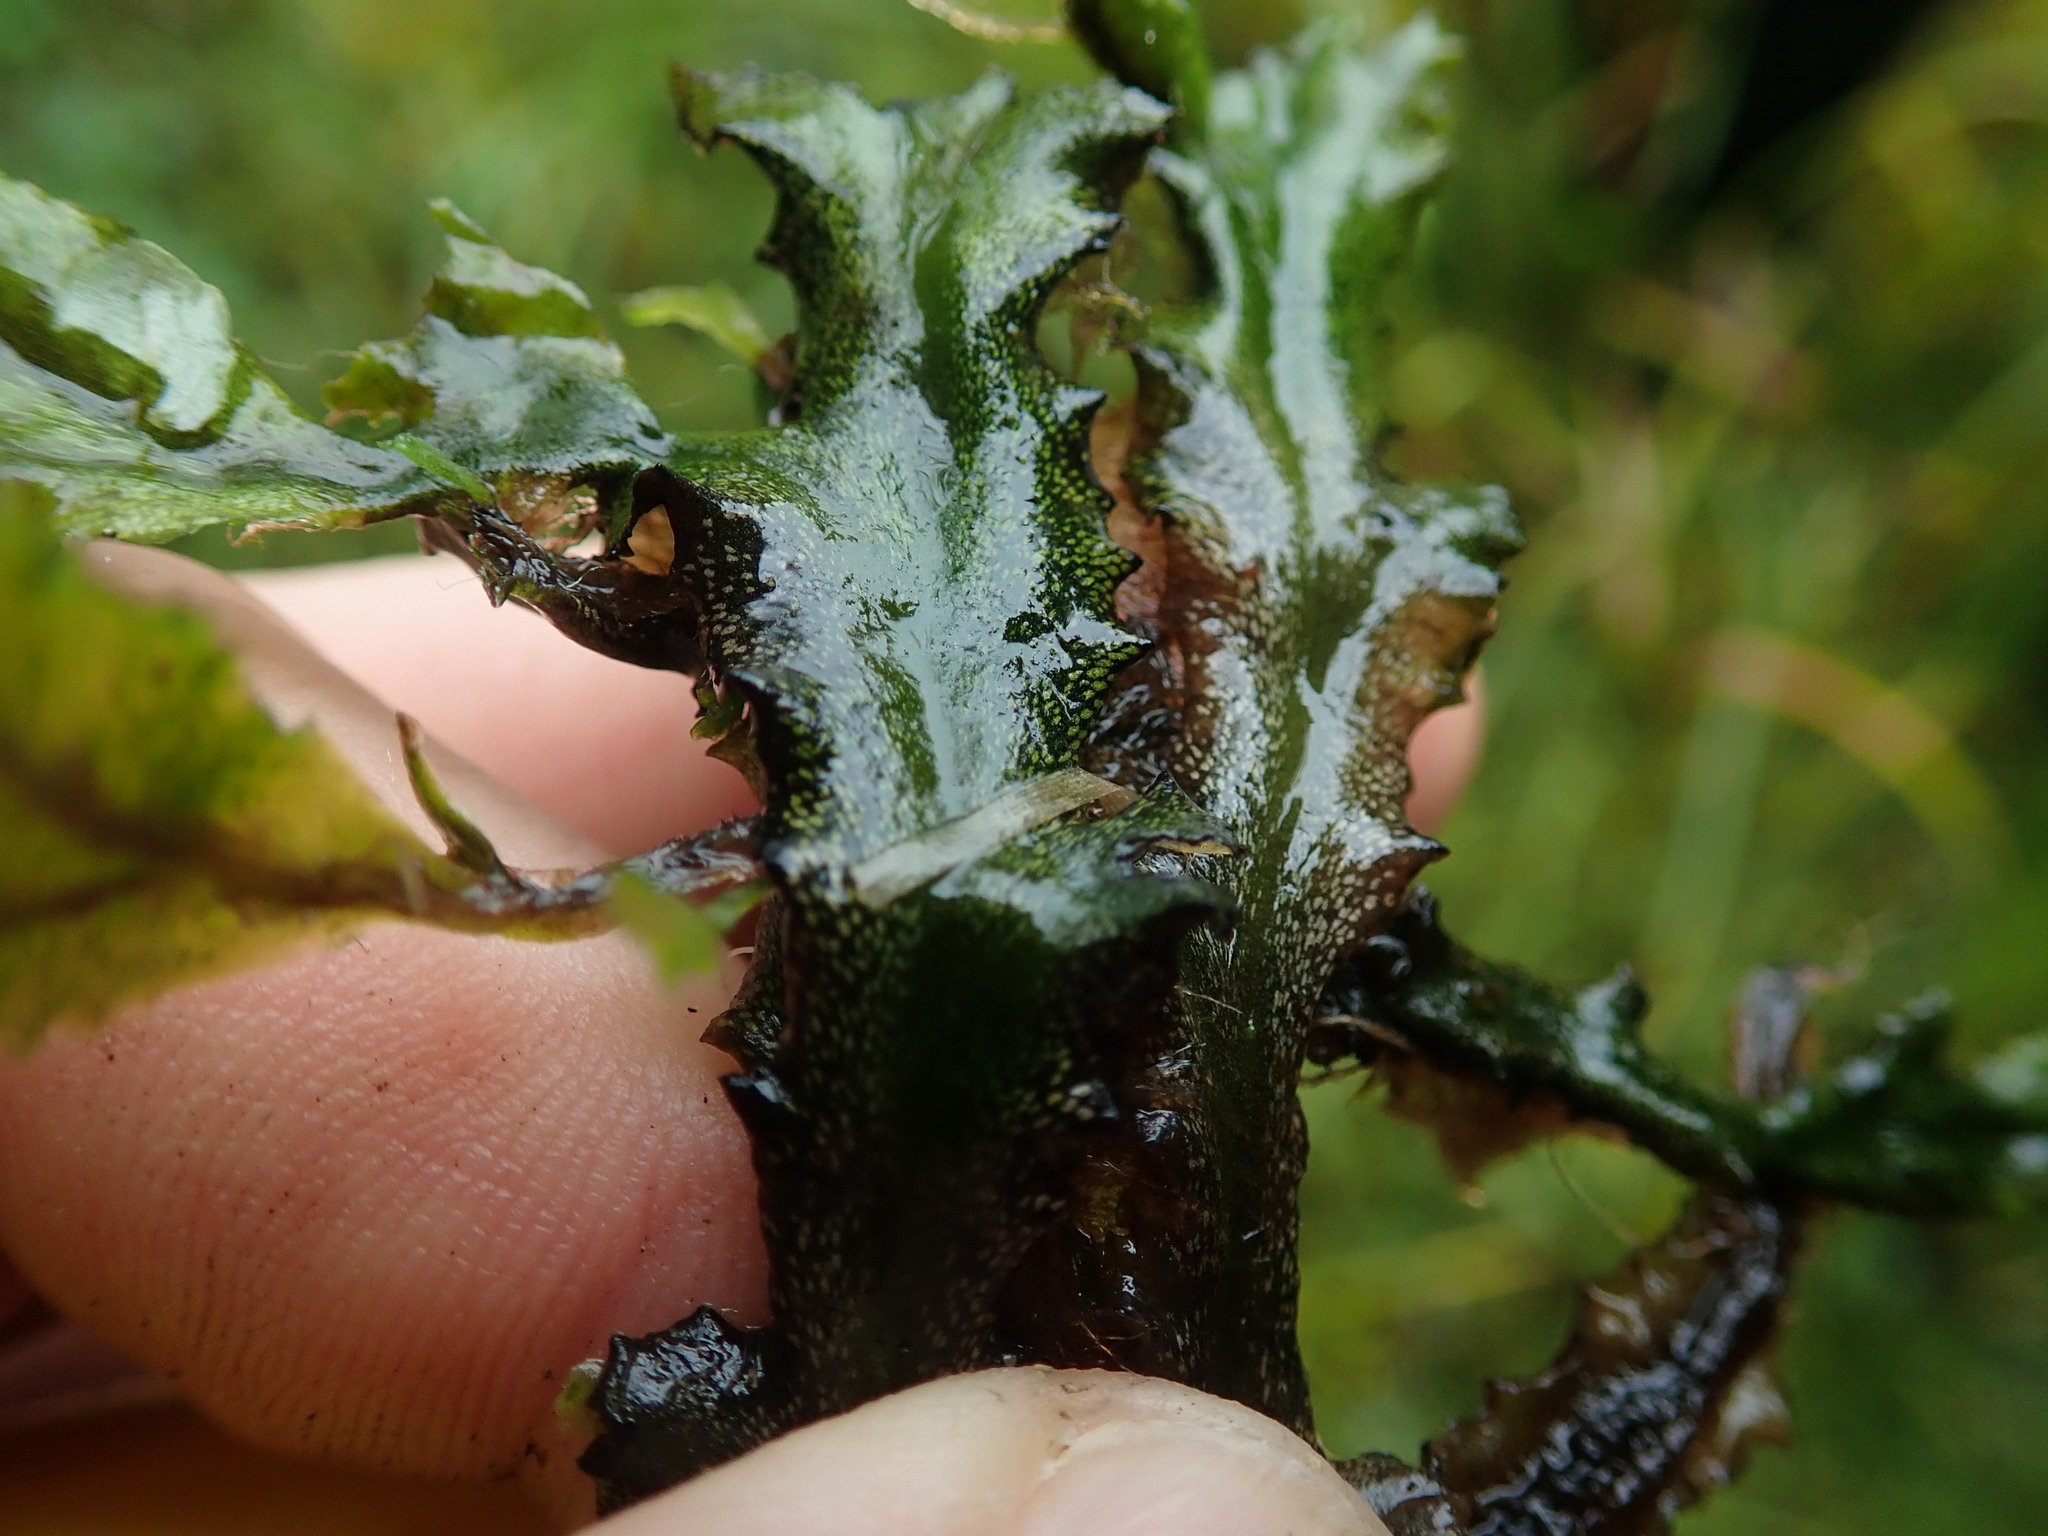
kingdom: Plantae
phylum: Marchantiophyta
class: Marchantiopsida
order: Marchantiales
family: Marchantiaceae
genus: Marchantia
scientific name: Marchantia polymorpha
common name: Common liverwort
